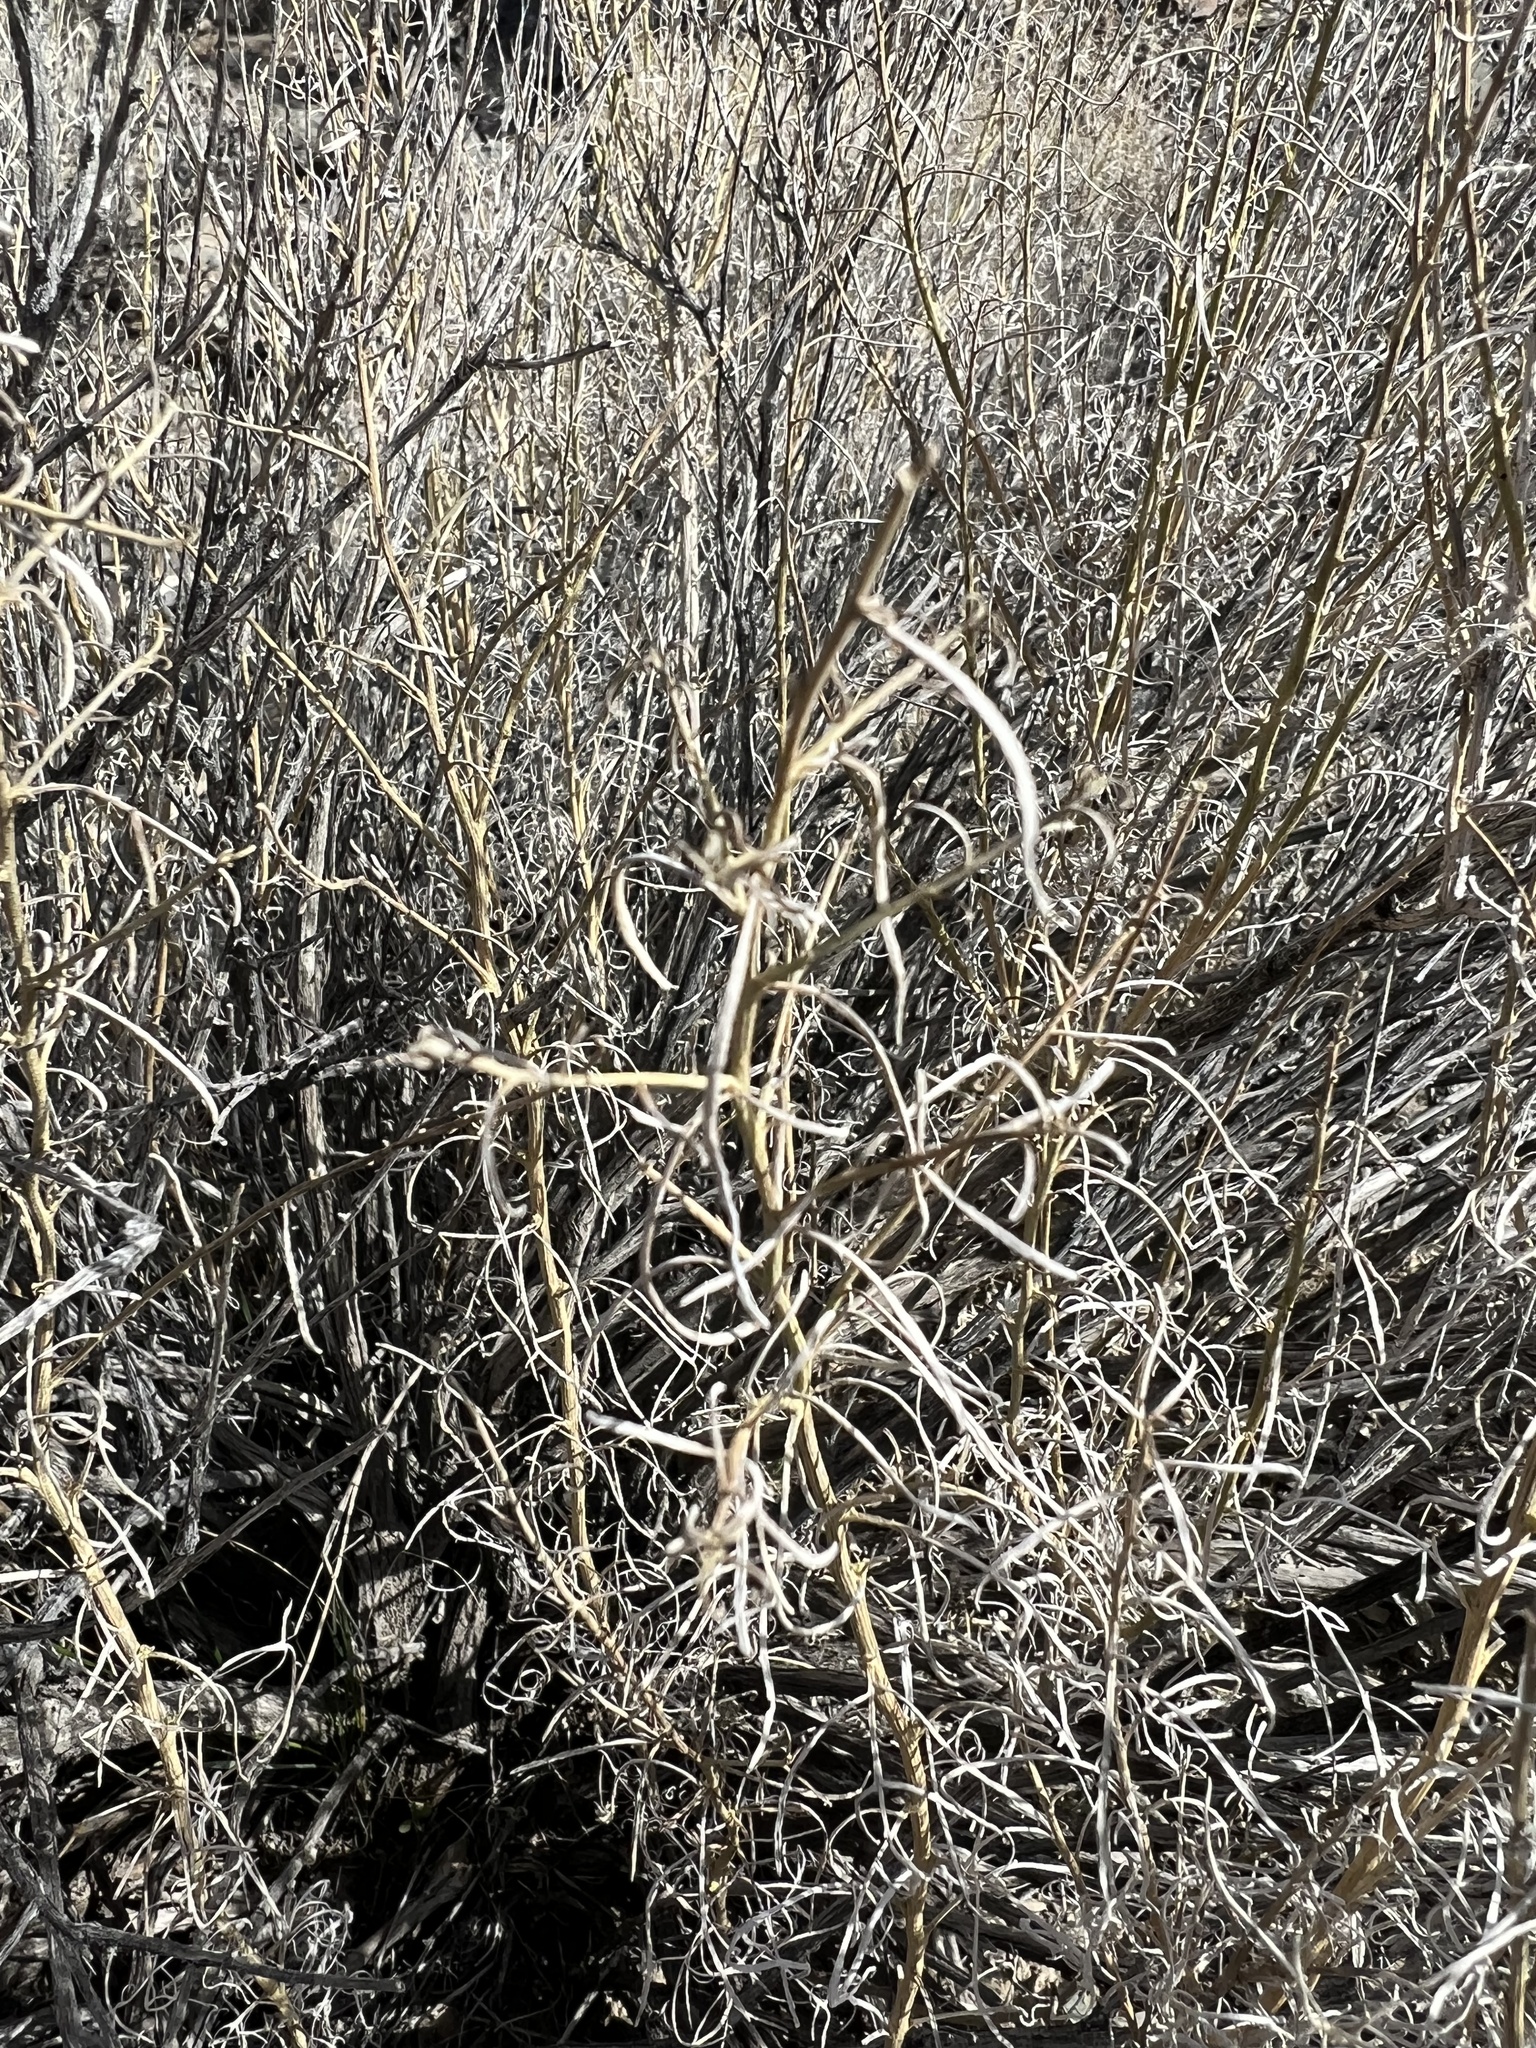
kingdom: Plantae
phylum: Tracheophyta
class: Magnoliopsida
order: Asterales
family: Asteraceae
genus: Ambrosia
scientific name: Ambrosia salsola
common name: Burrobrush
